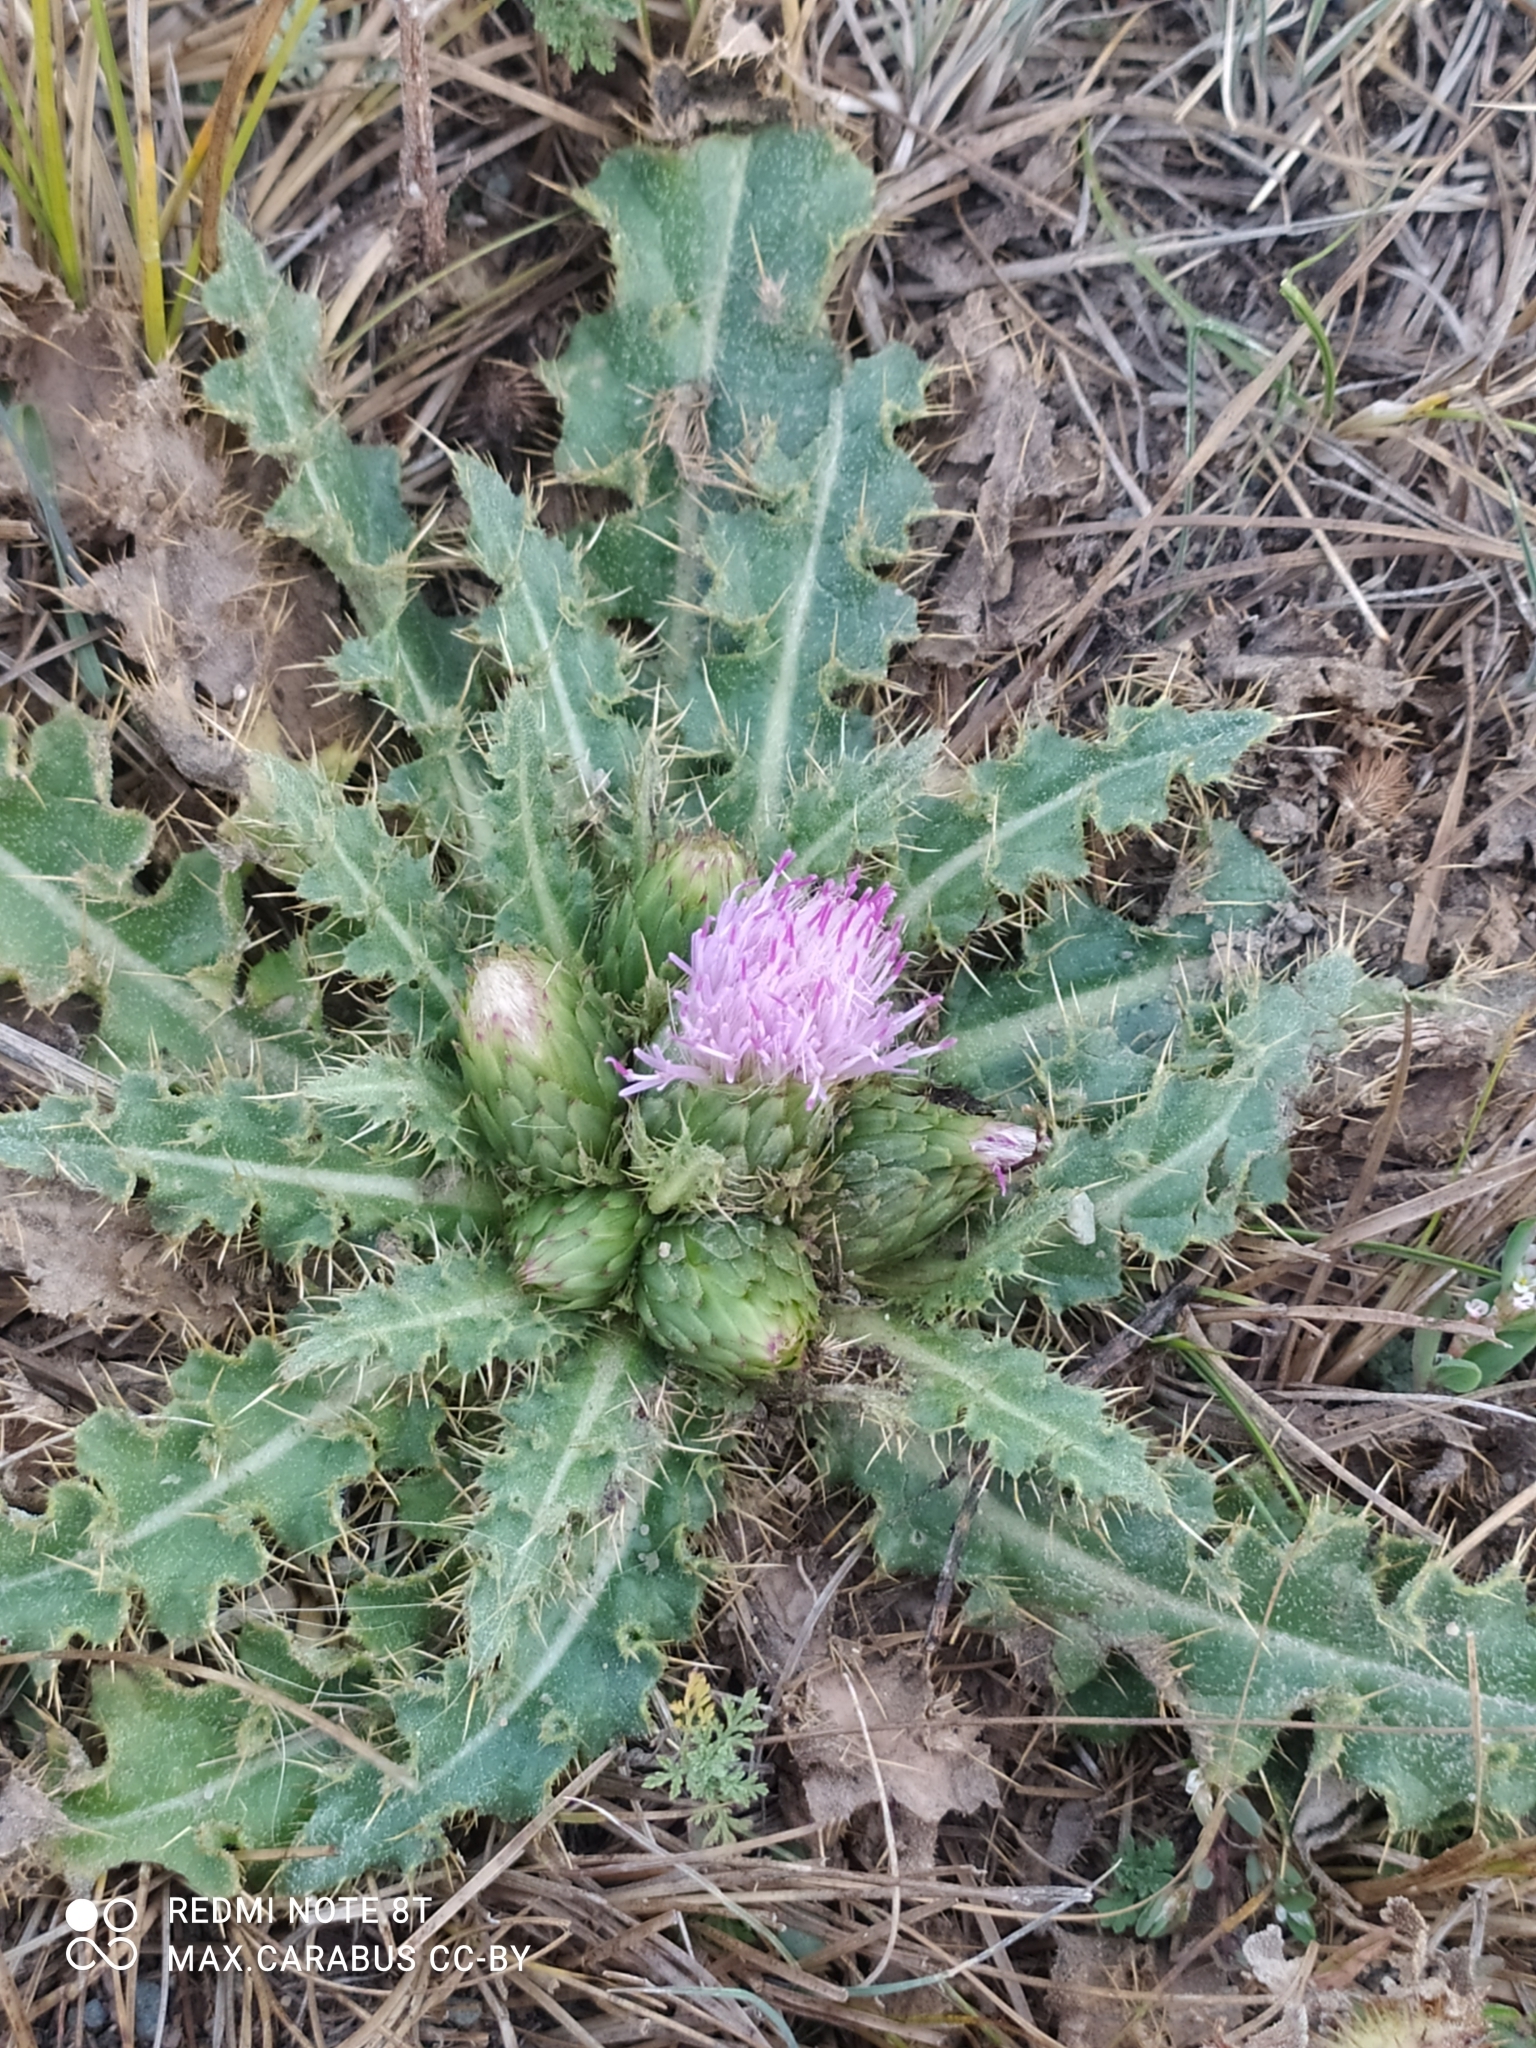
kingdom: Plantae
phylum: Tracheophyta
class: Magnoliopsida
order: Asterales
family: Asteraceae
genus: Cirsium
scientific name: Cirsium esculentum
